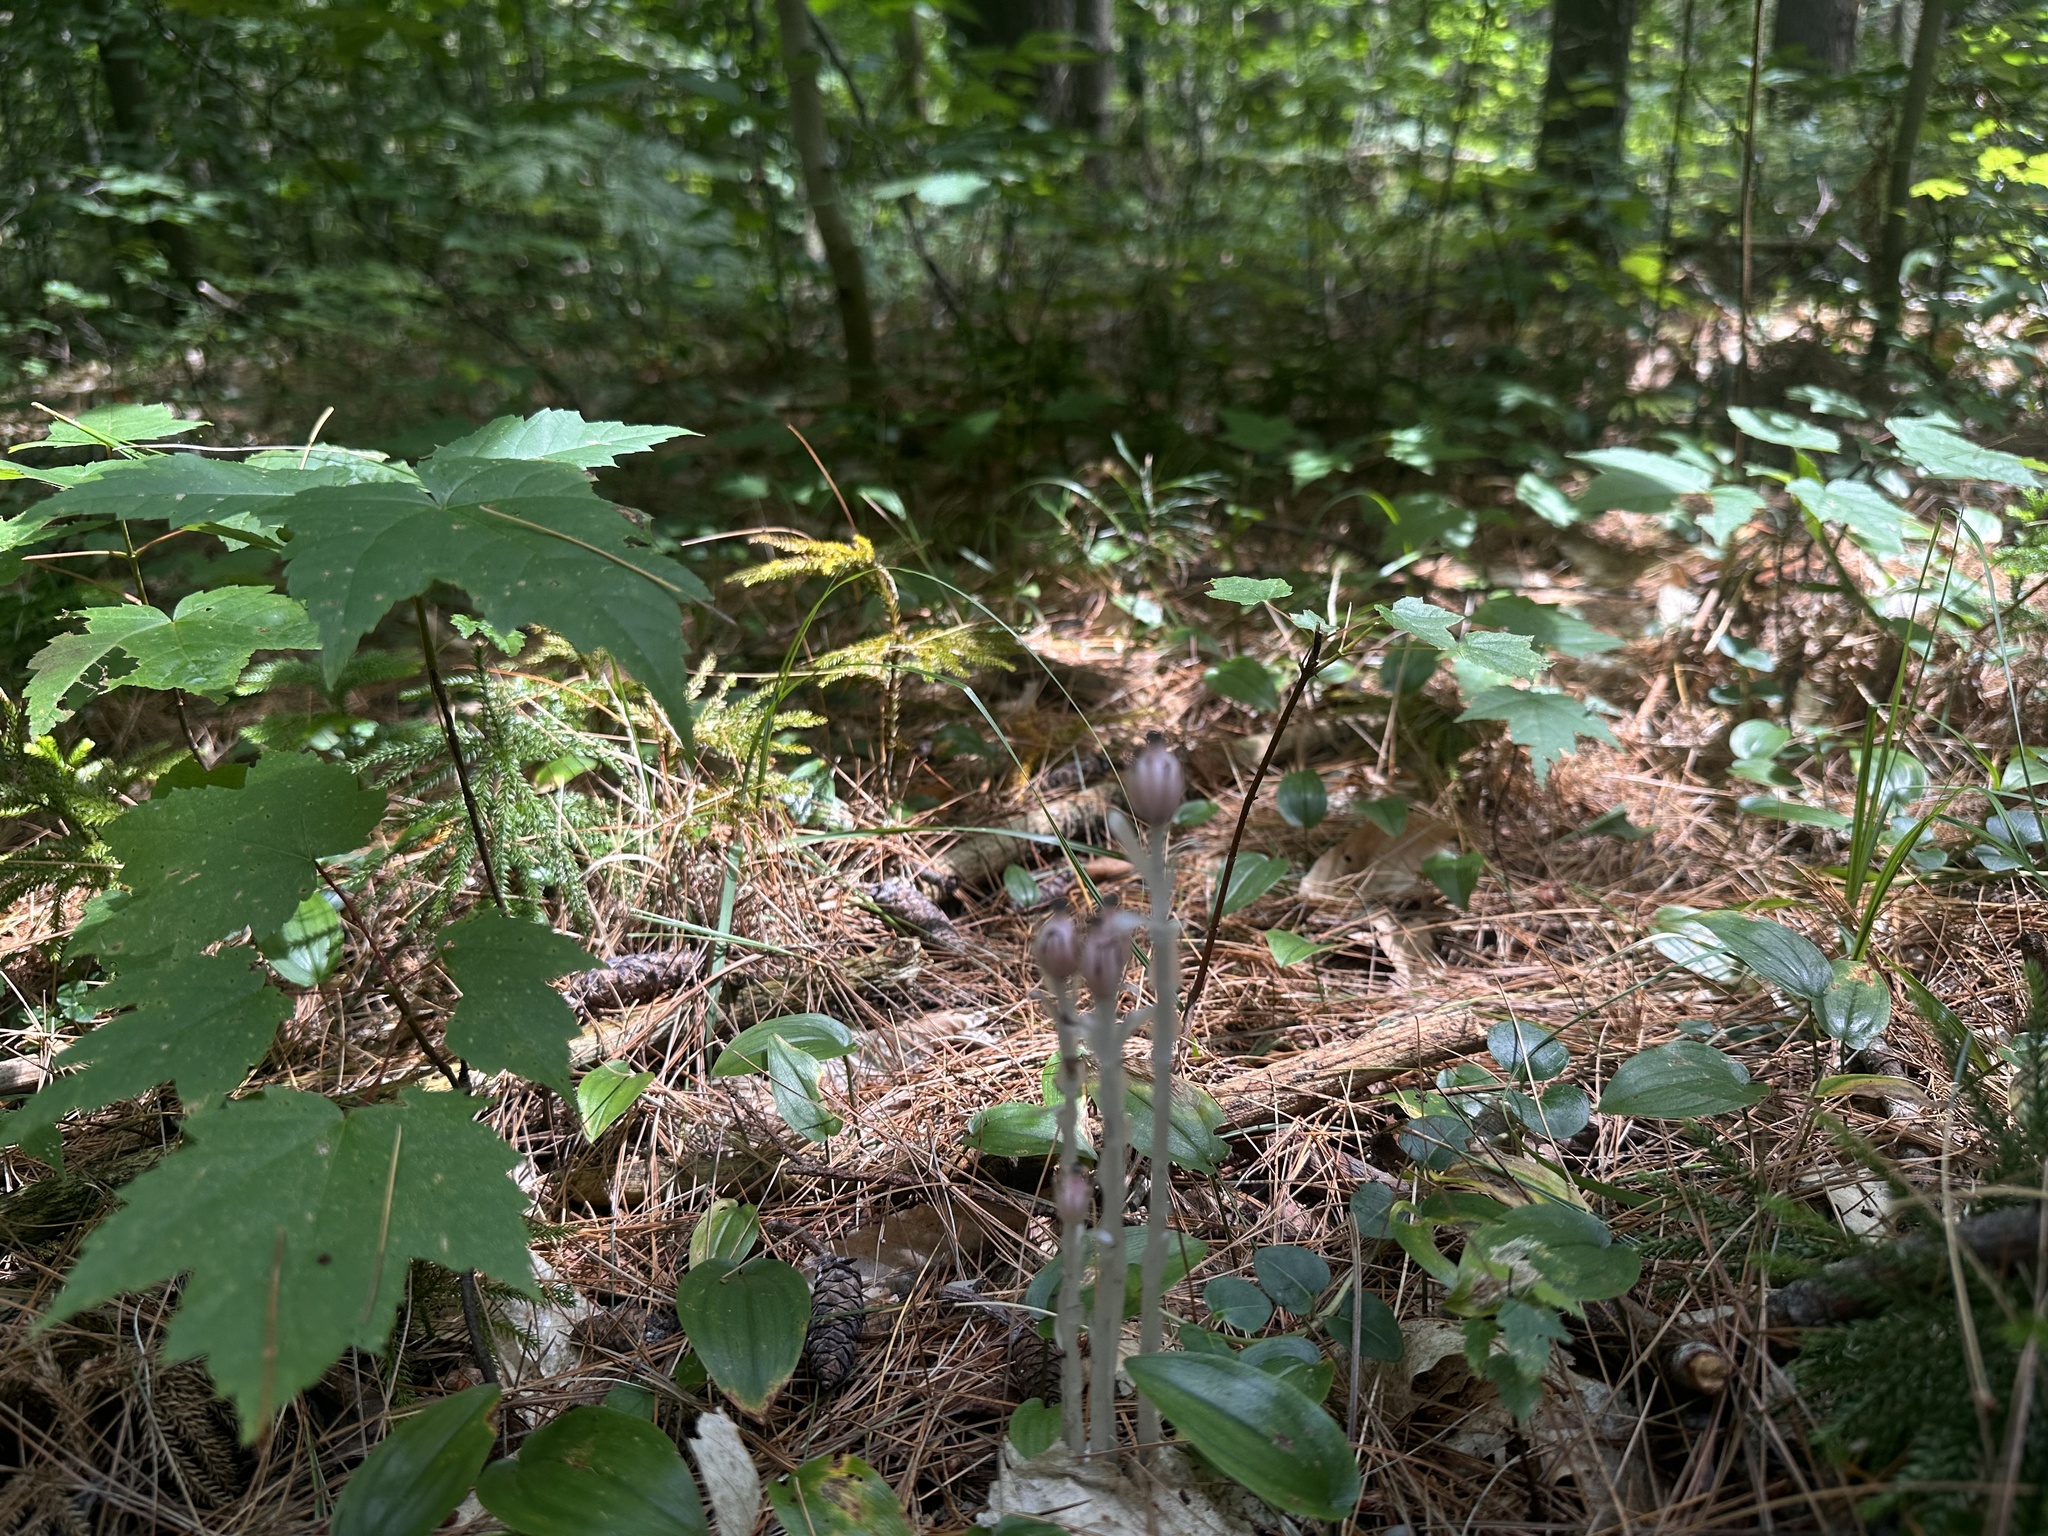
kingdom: Plantae
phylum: Tracheophyta
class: Magnoliopsida
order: Ericales
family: Ericaceae
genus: Monotropa
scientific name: Monotropa uniflora
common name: Convulsion root
